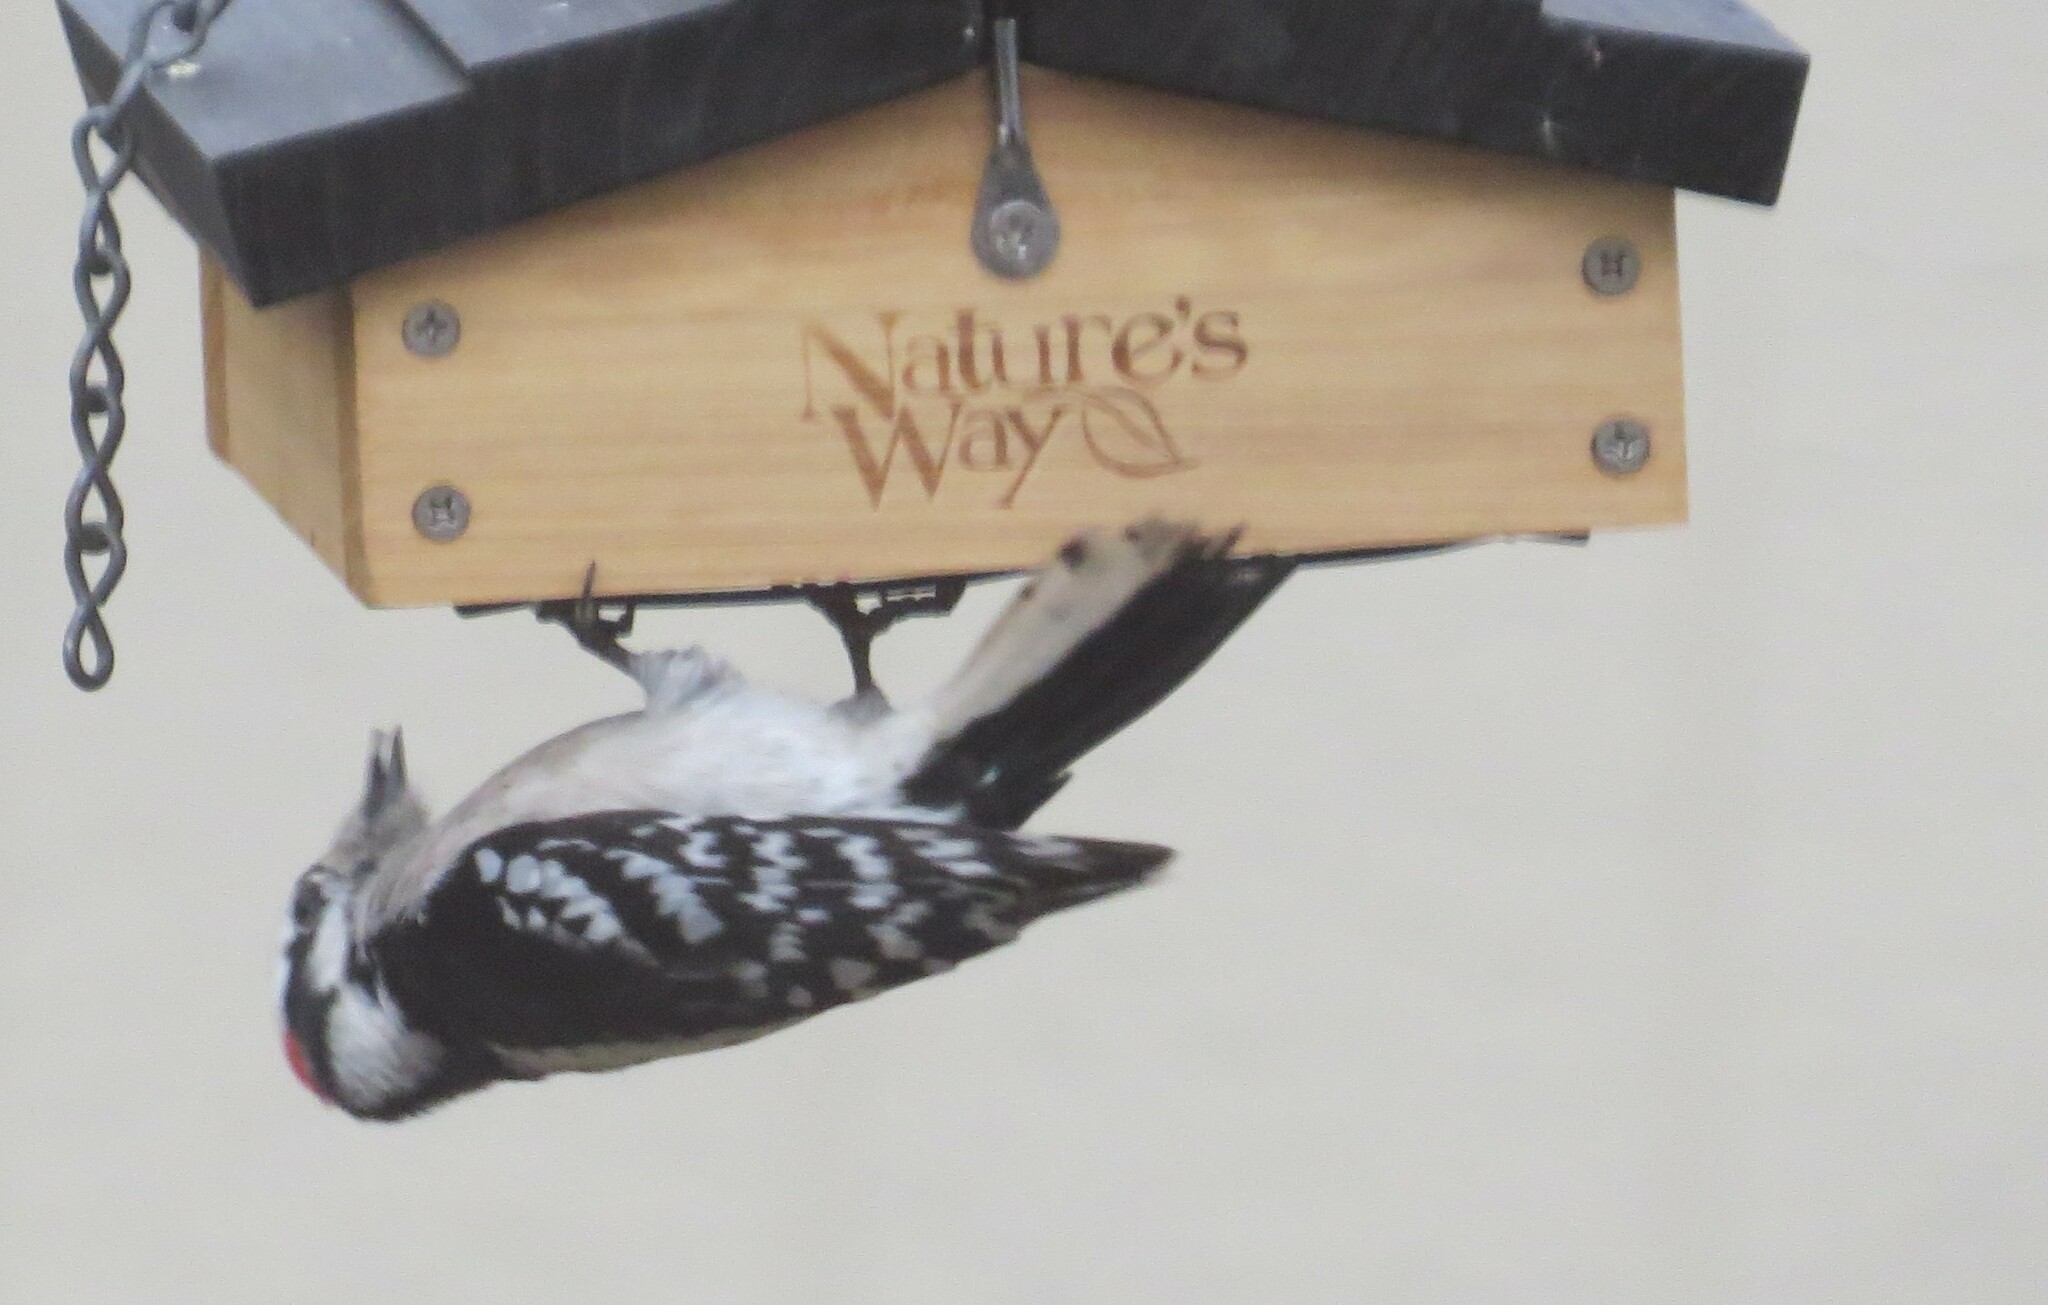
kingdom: Animalia
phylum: Chordata
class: Aves
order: Piciformes
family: Picidae
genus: Dryobates
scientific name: Dryobates pubescens
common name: Downy woodpecker
